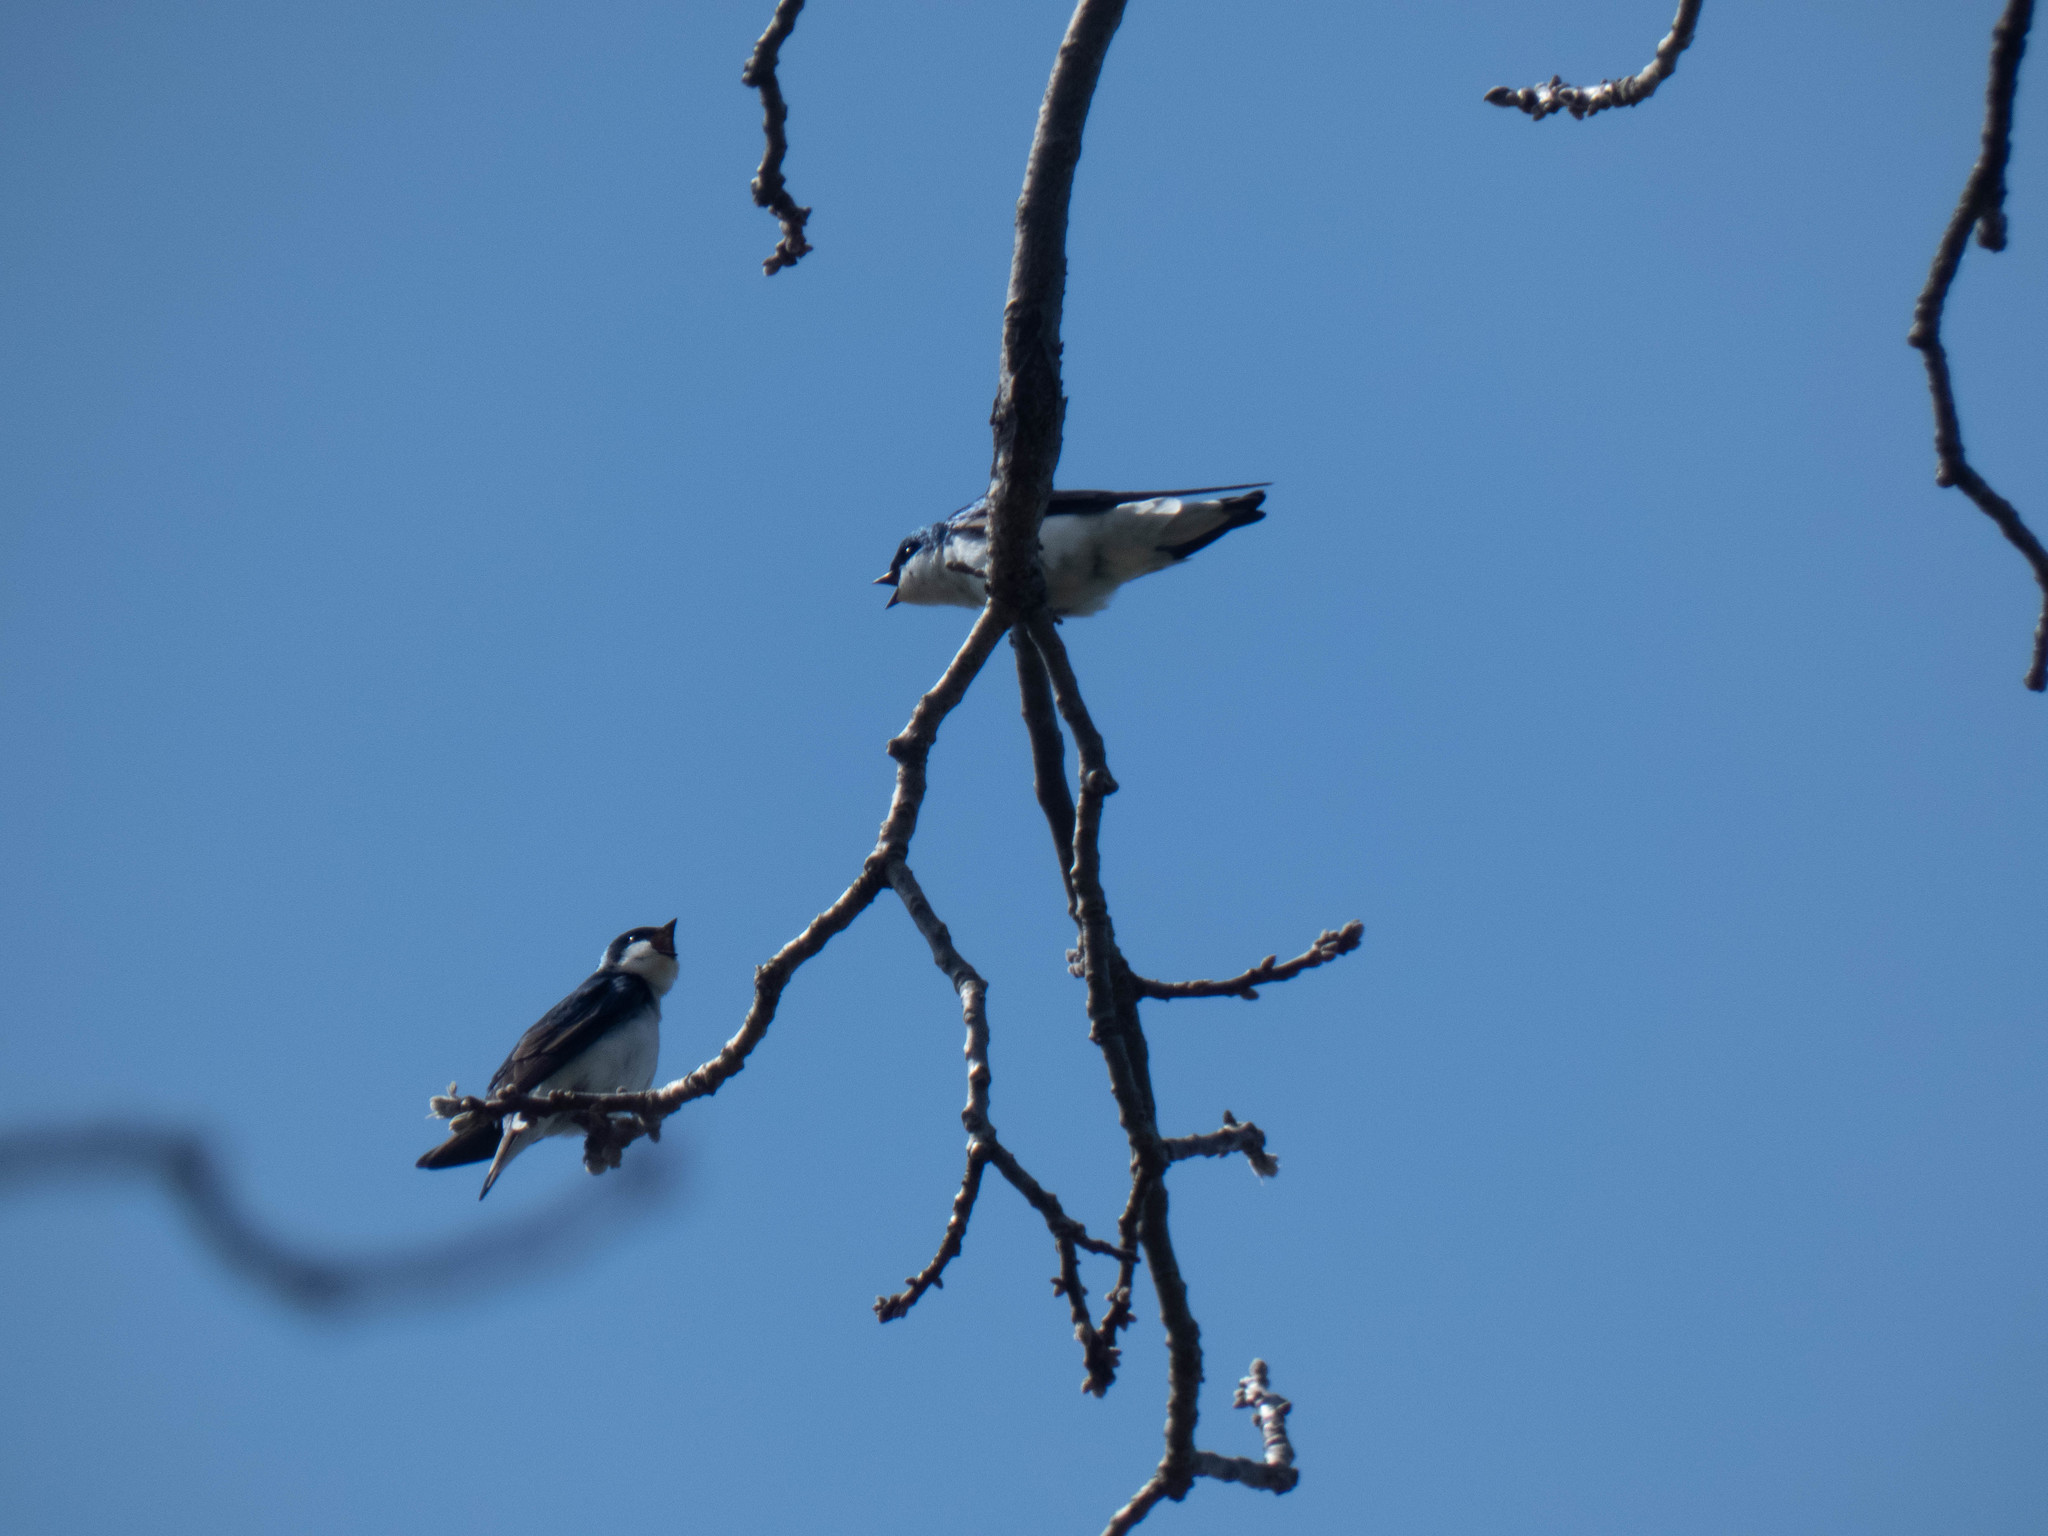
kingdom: Animalia
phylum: Chordata
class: Aves
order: Passeriformes
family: Hirundinidae
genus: Tachycineta
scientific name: Tachycineta bicolor
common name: Tree swallow
